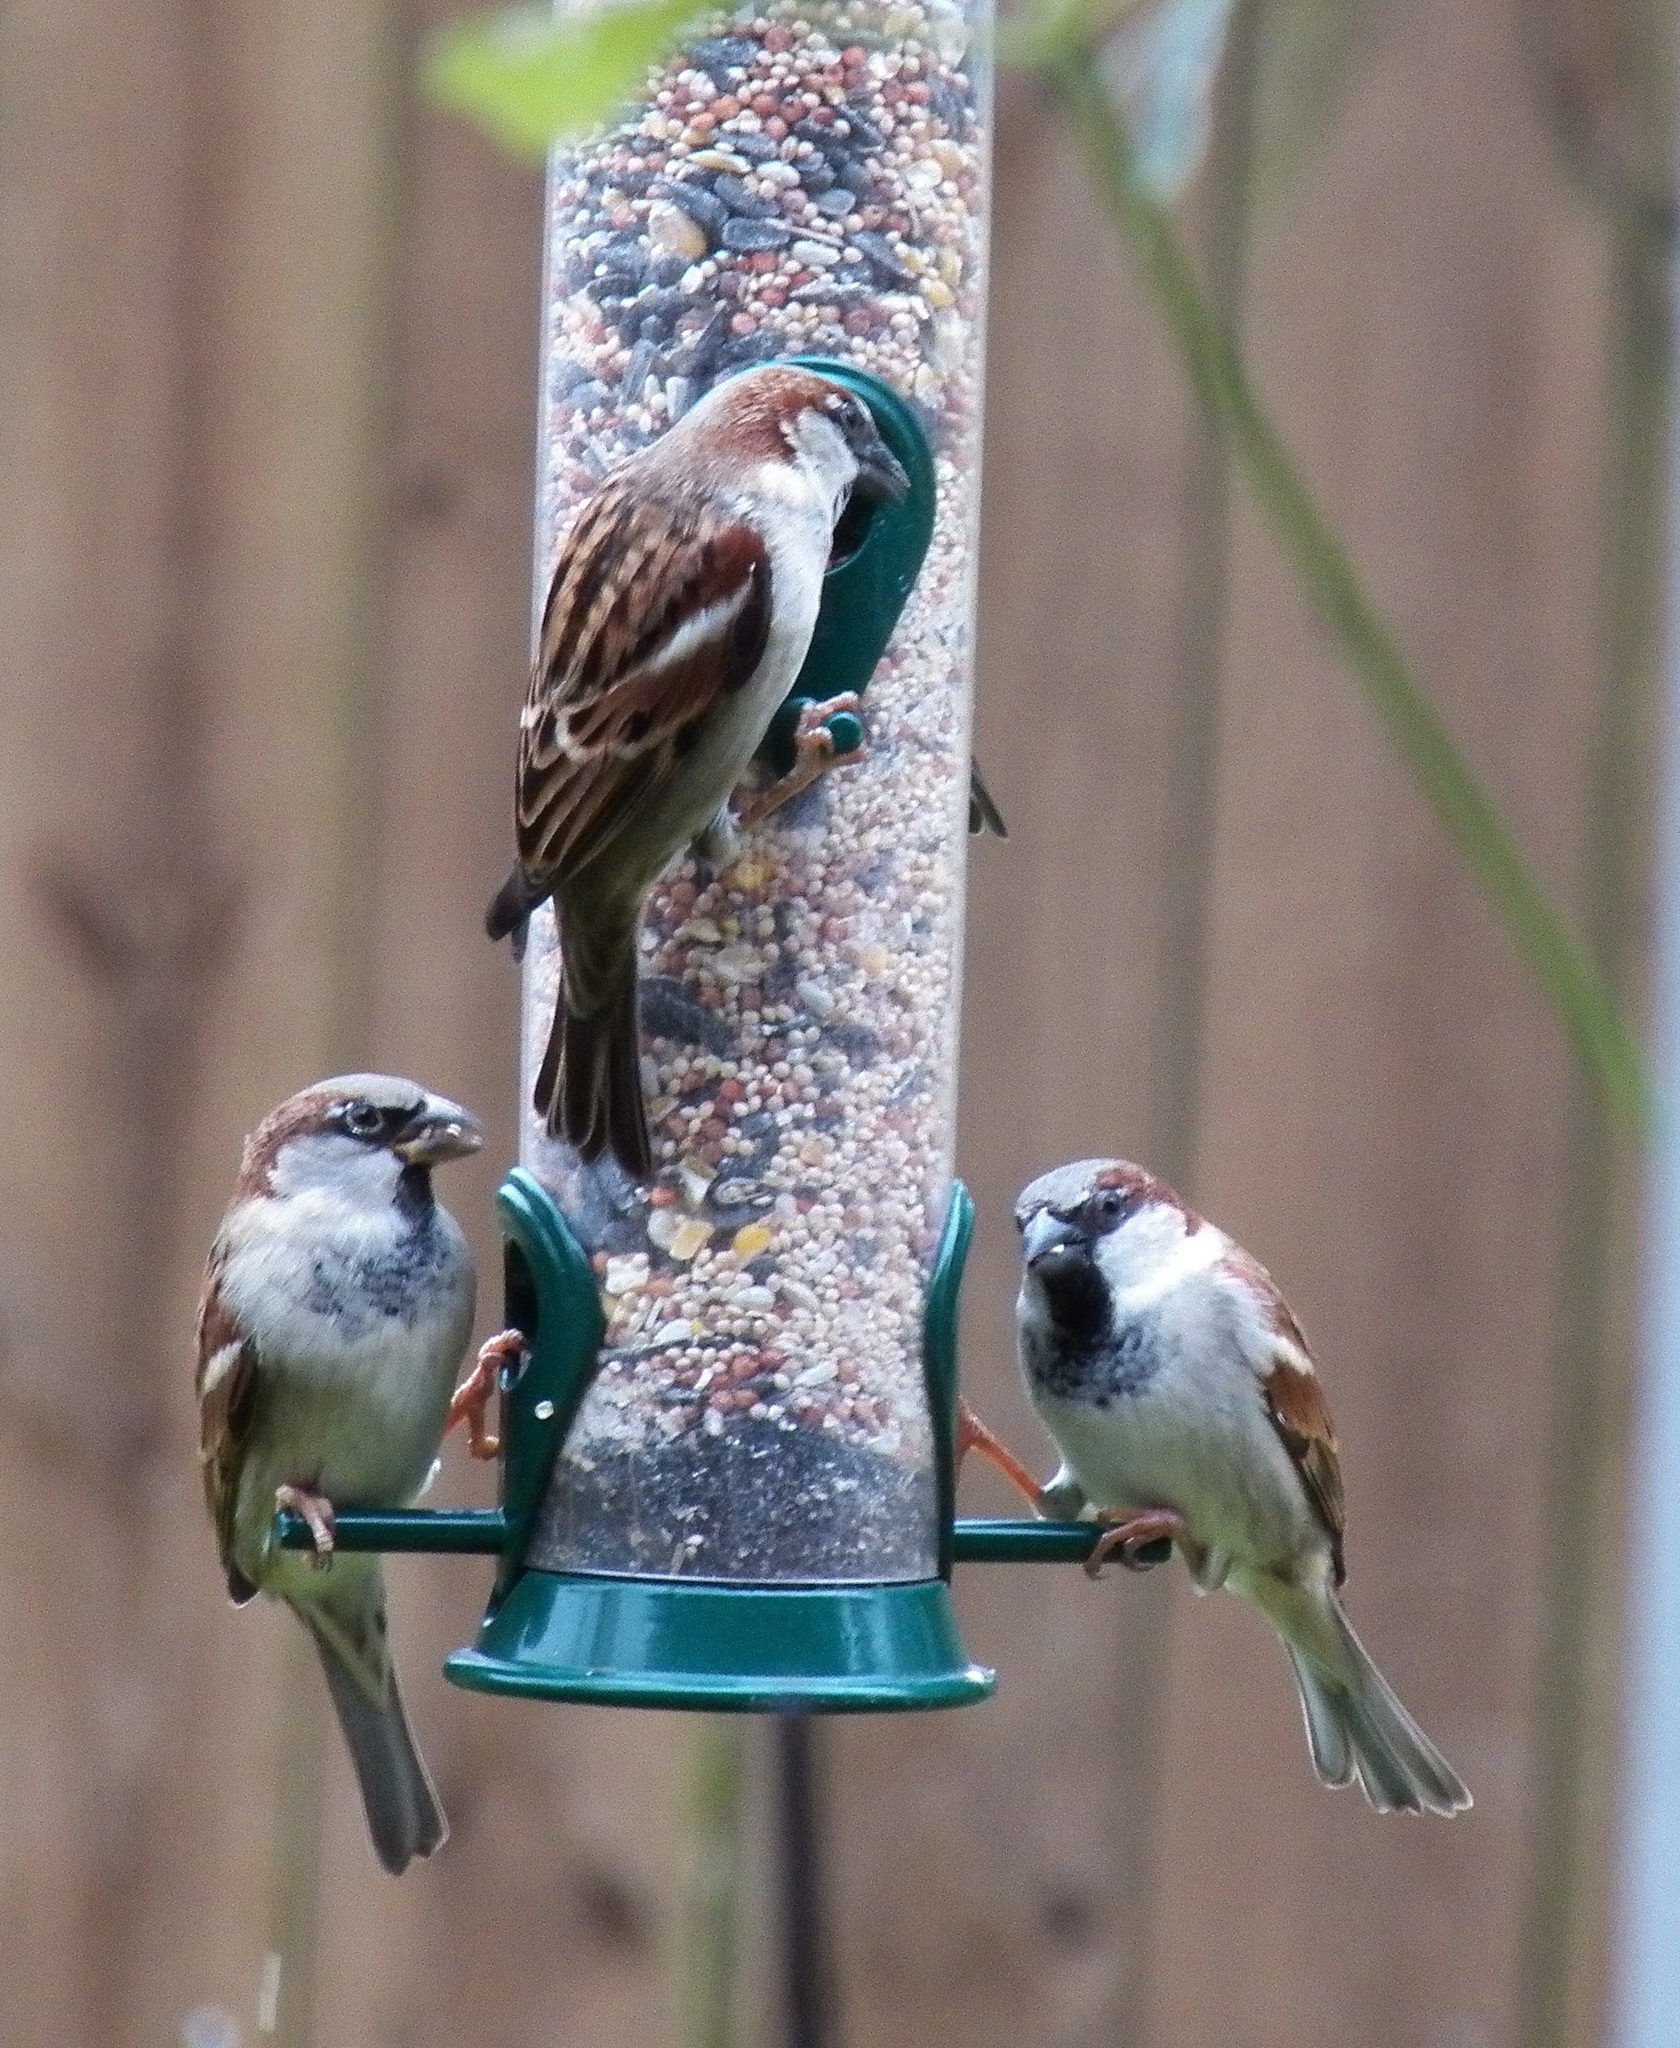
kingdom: Animalia
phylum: Chordata
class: Aves
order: Passeriformes
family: Passeridae
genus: Passer
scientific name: Passer domesticus
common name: House sparrow
